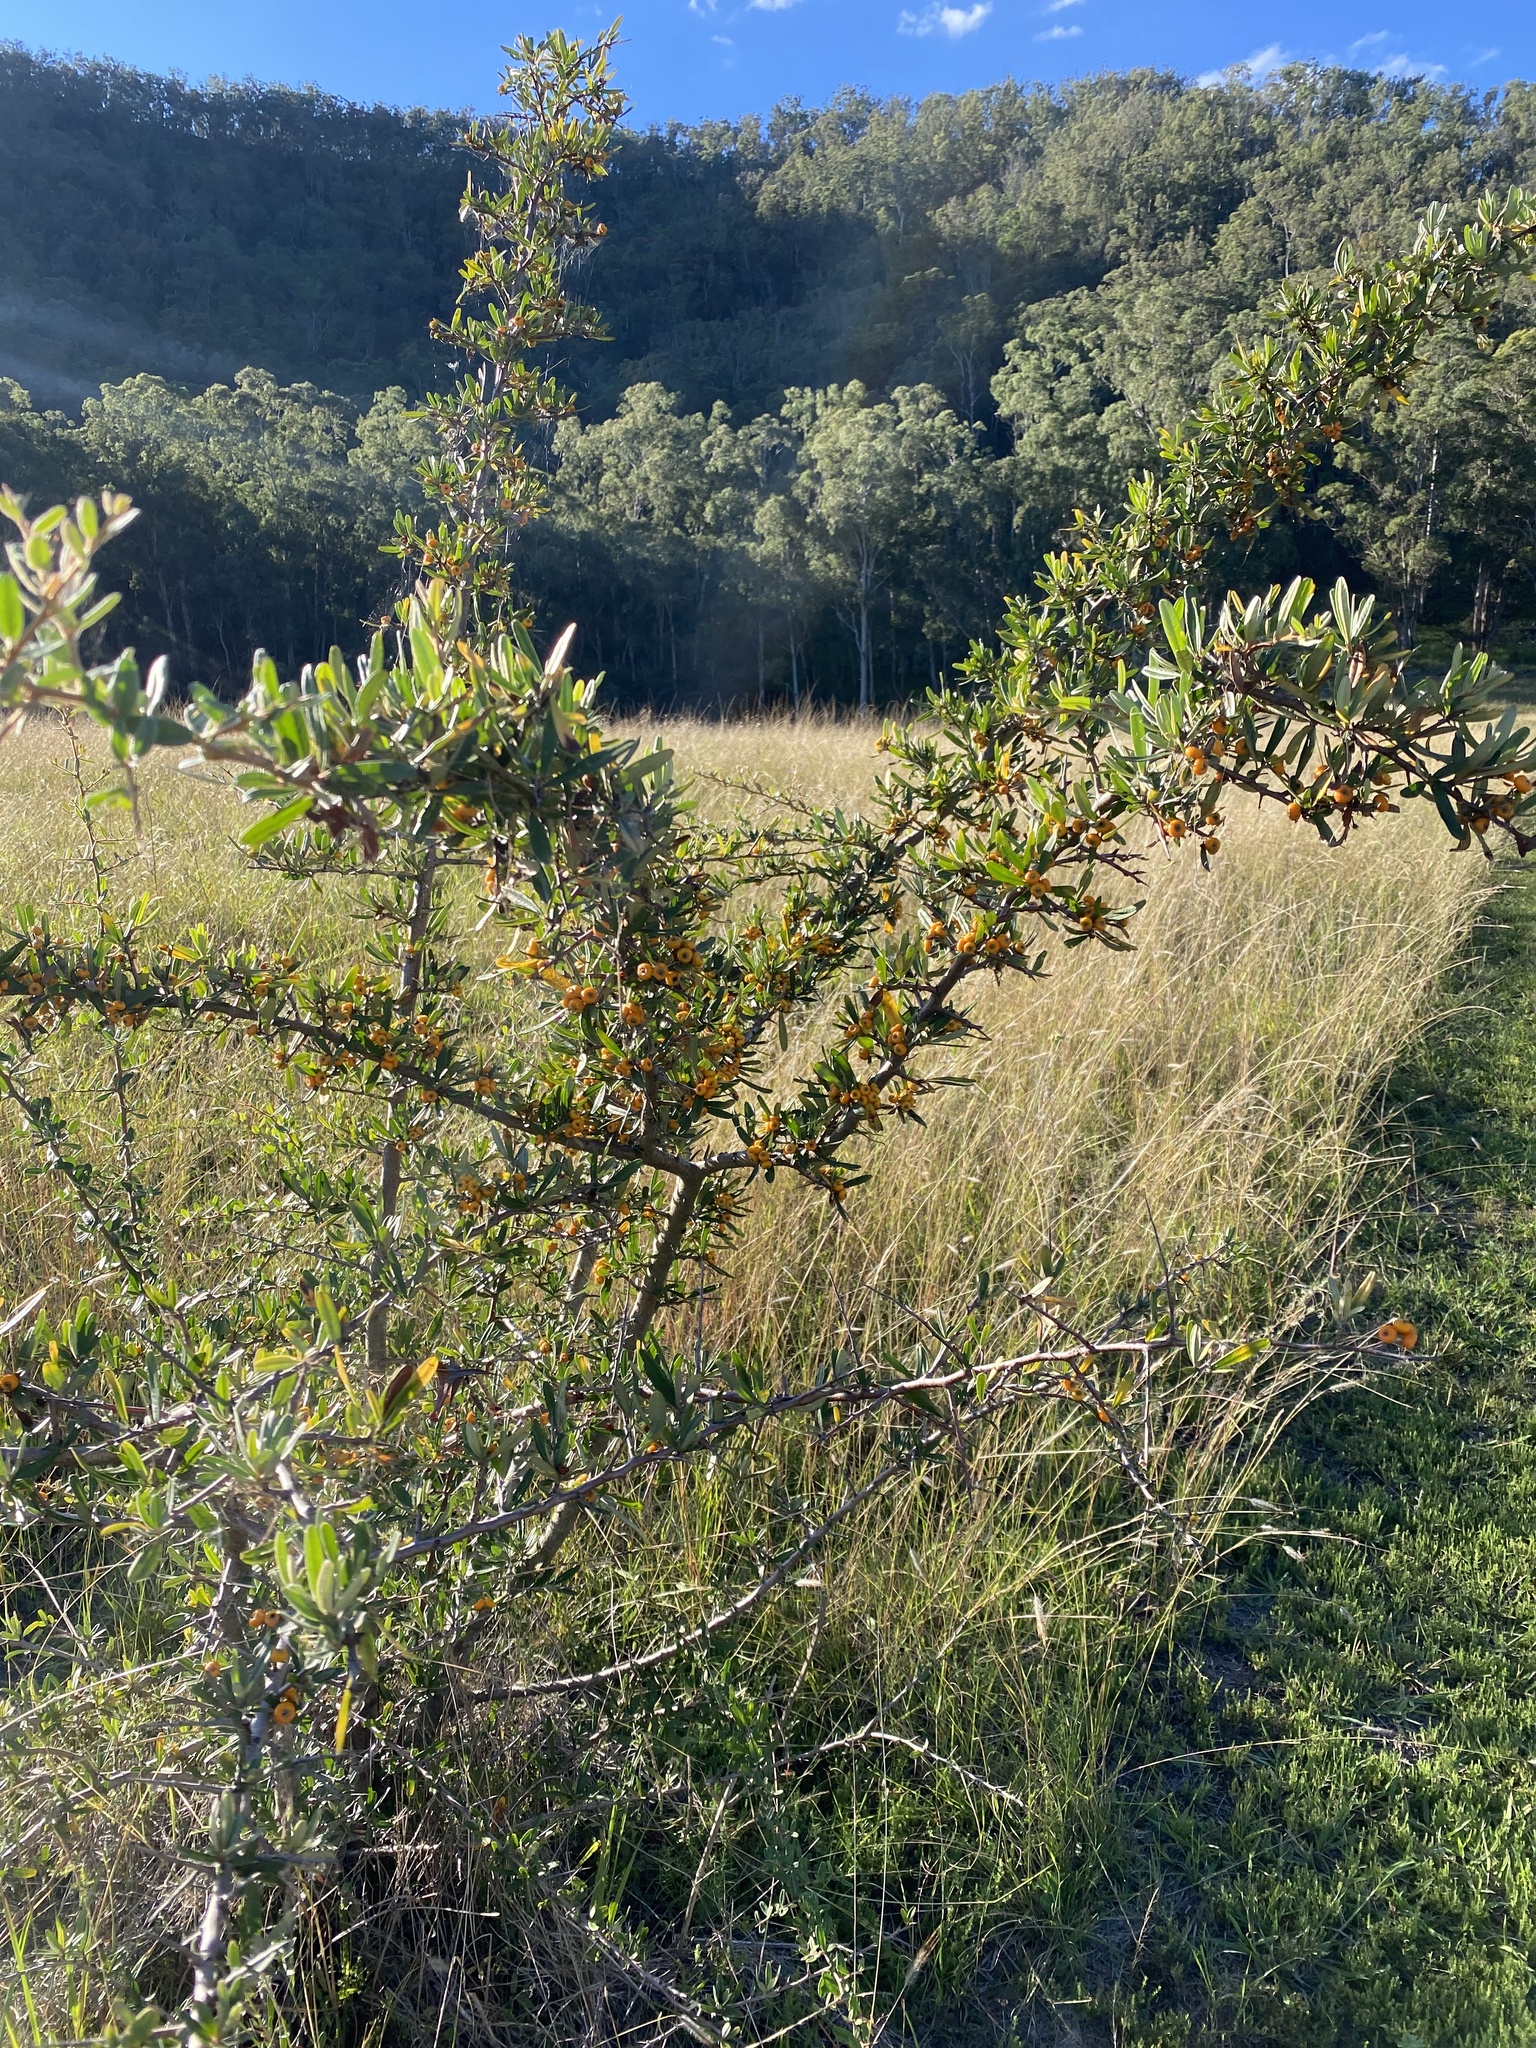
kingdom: Plantae
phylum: Tracheophyta
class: Magnoliopsida
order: Rosales
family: Rosaceae
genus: Pyracantha
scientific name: Pyracantha angustifolia
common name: Narrowleaf firethorn
